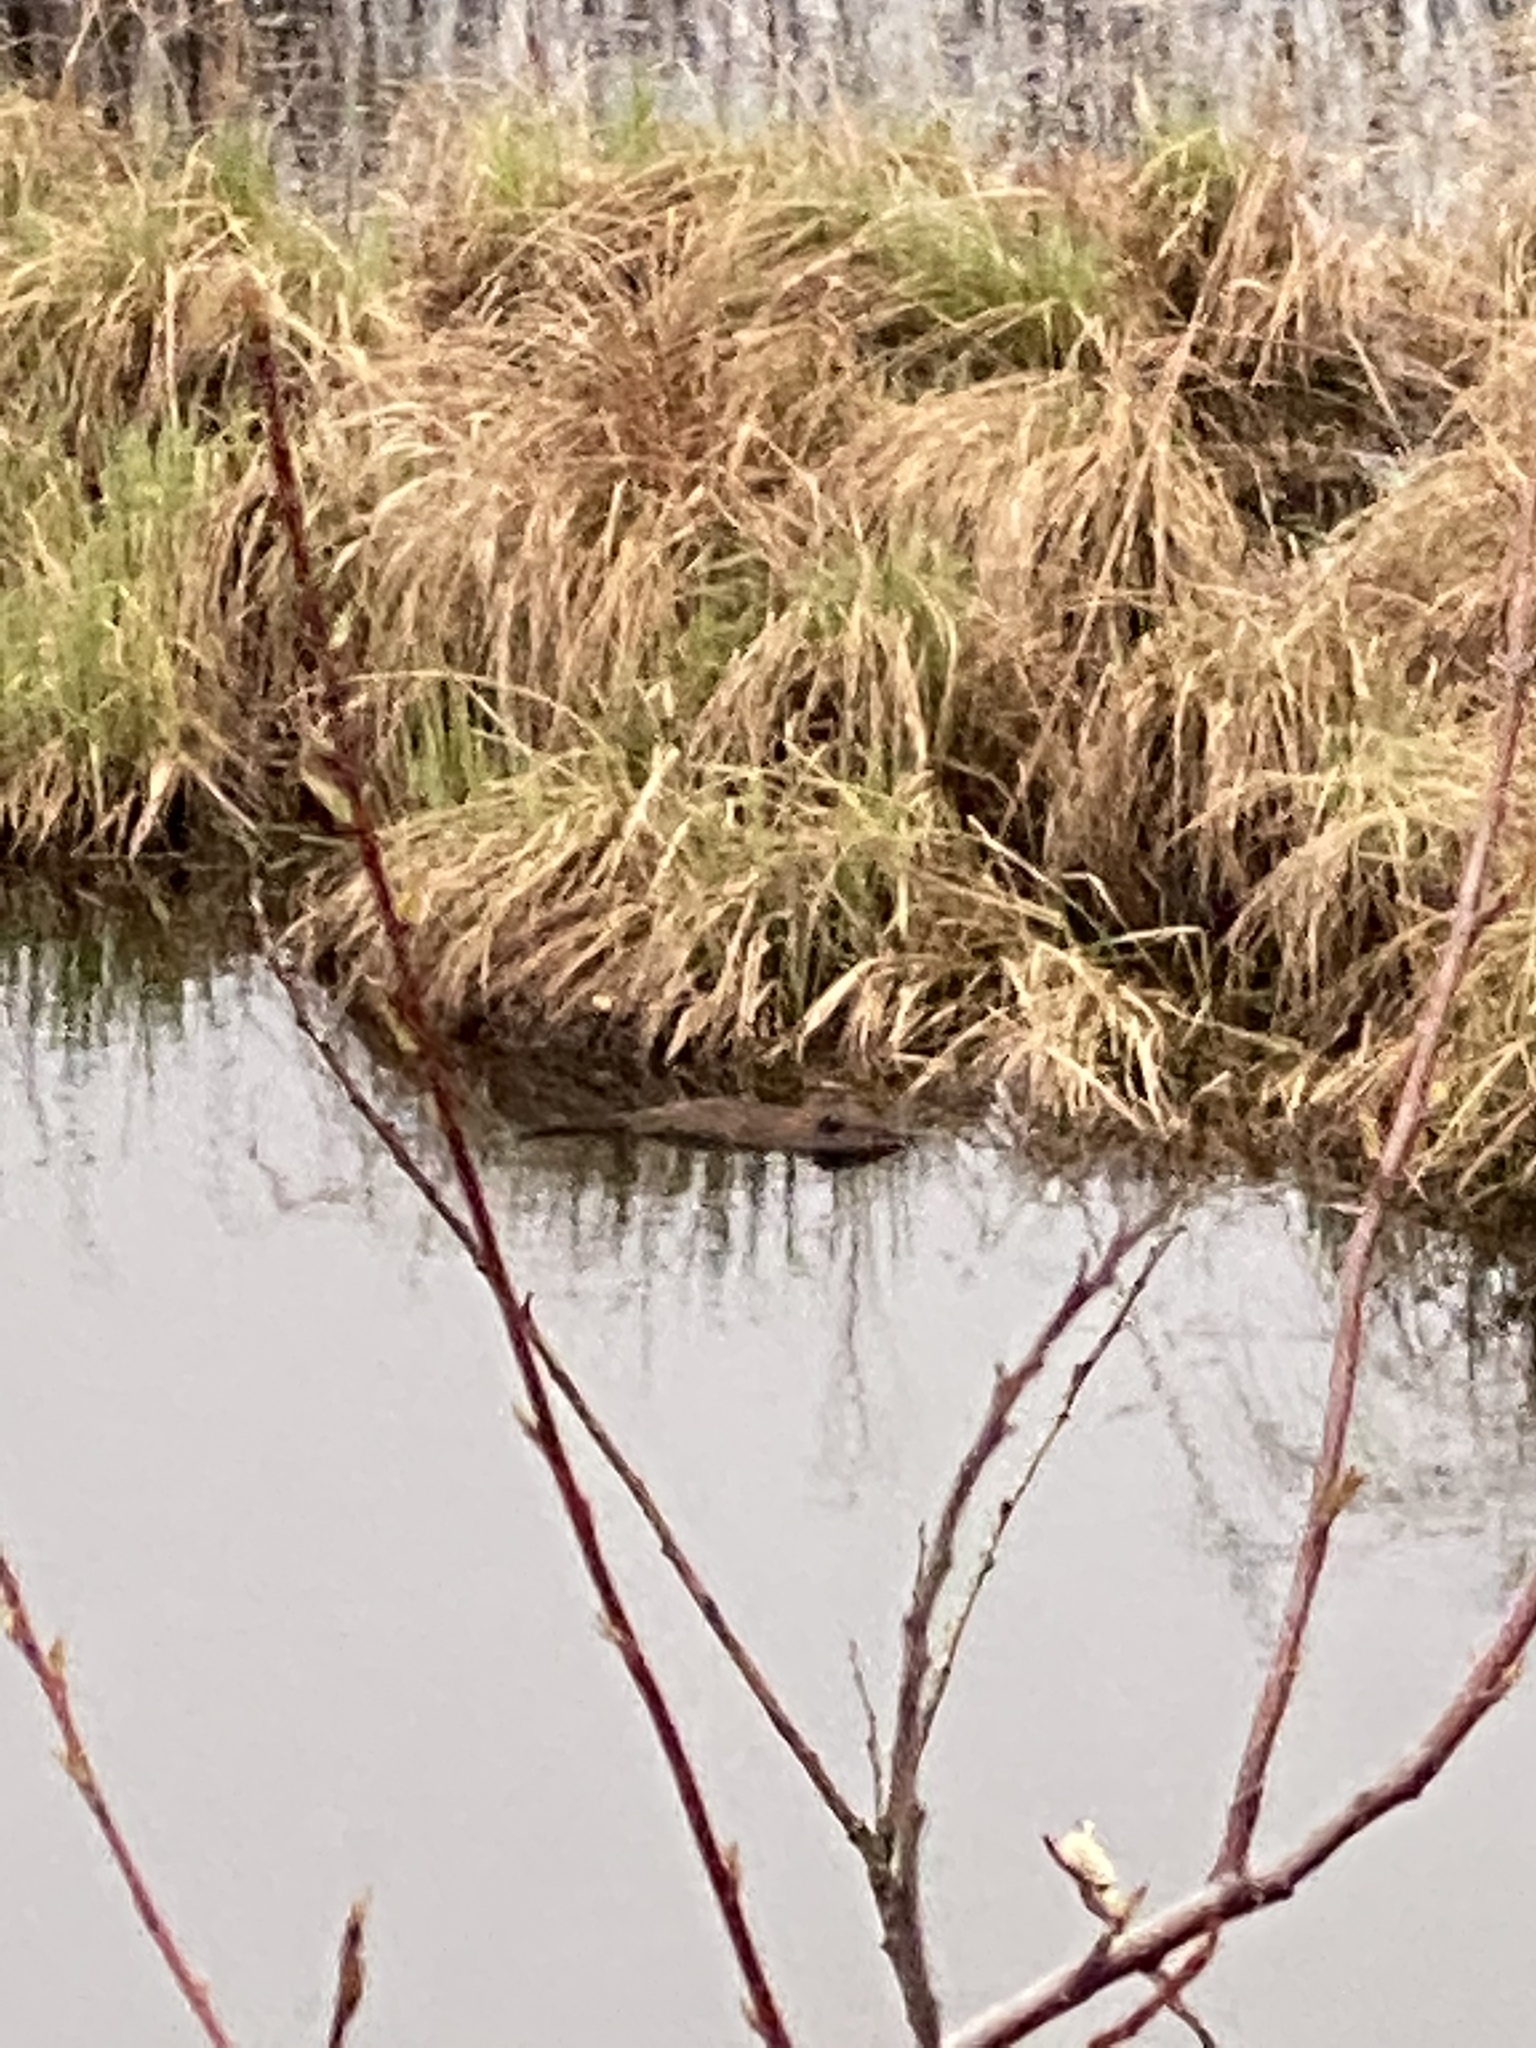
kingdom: Animalia
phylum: Chordata
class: Mammalia
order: Rodentia
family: Cricetidae
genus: Ondatra
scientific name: Ondatra zibethicus
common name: Muskrat
